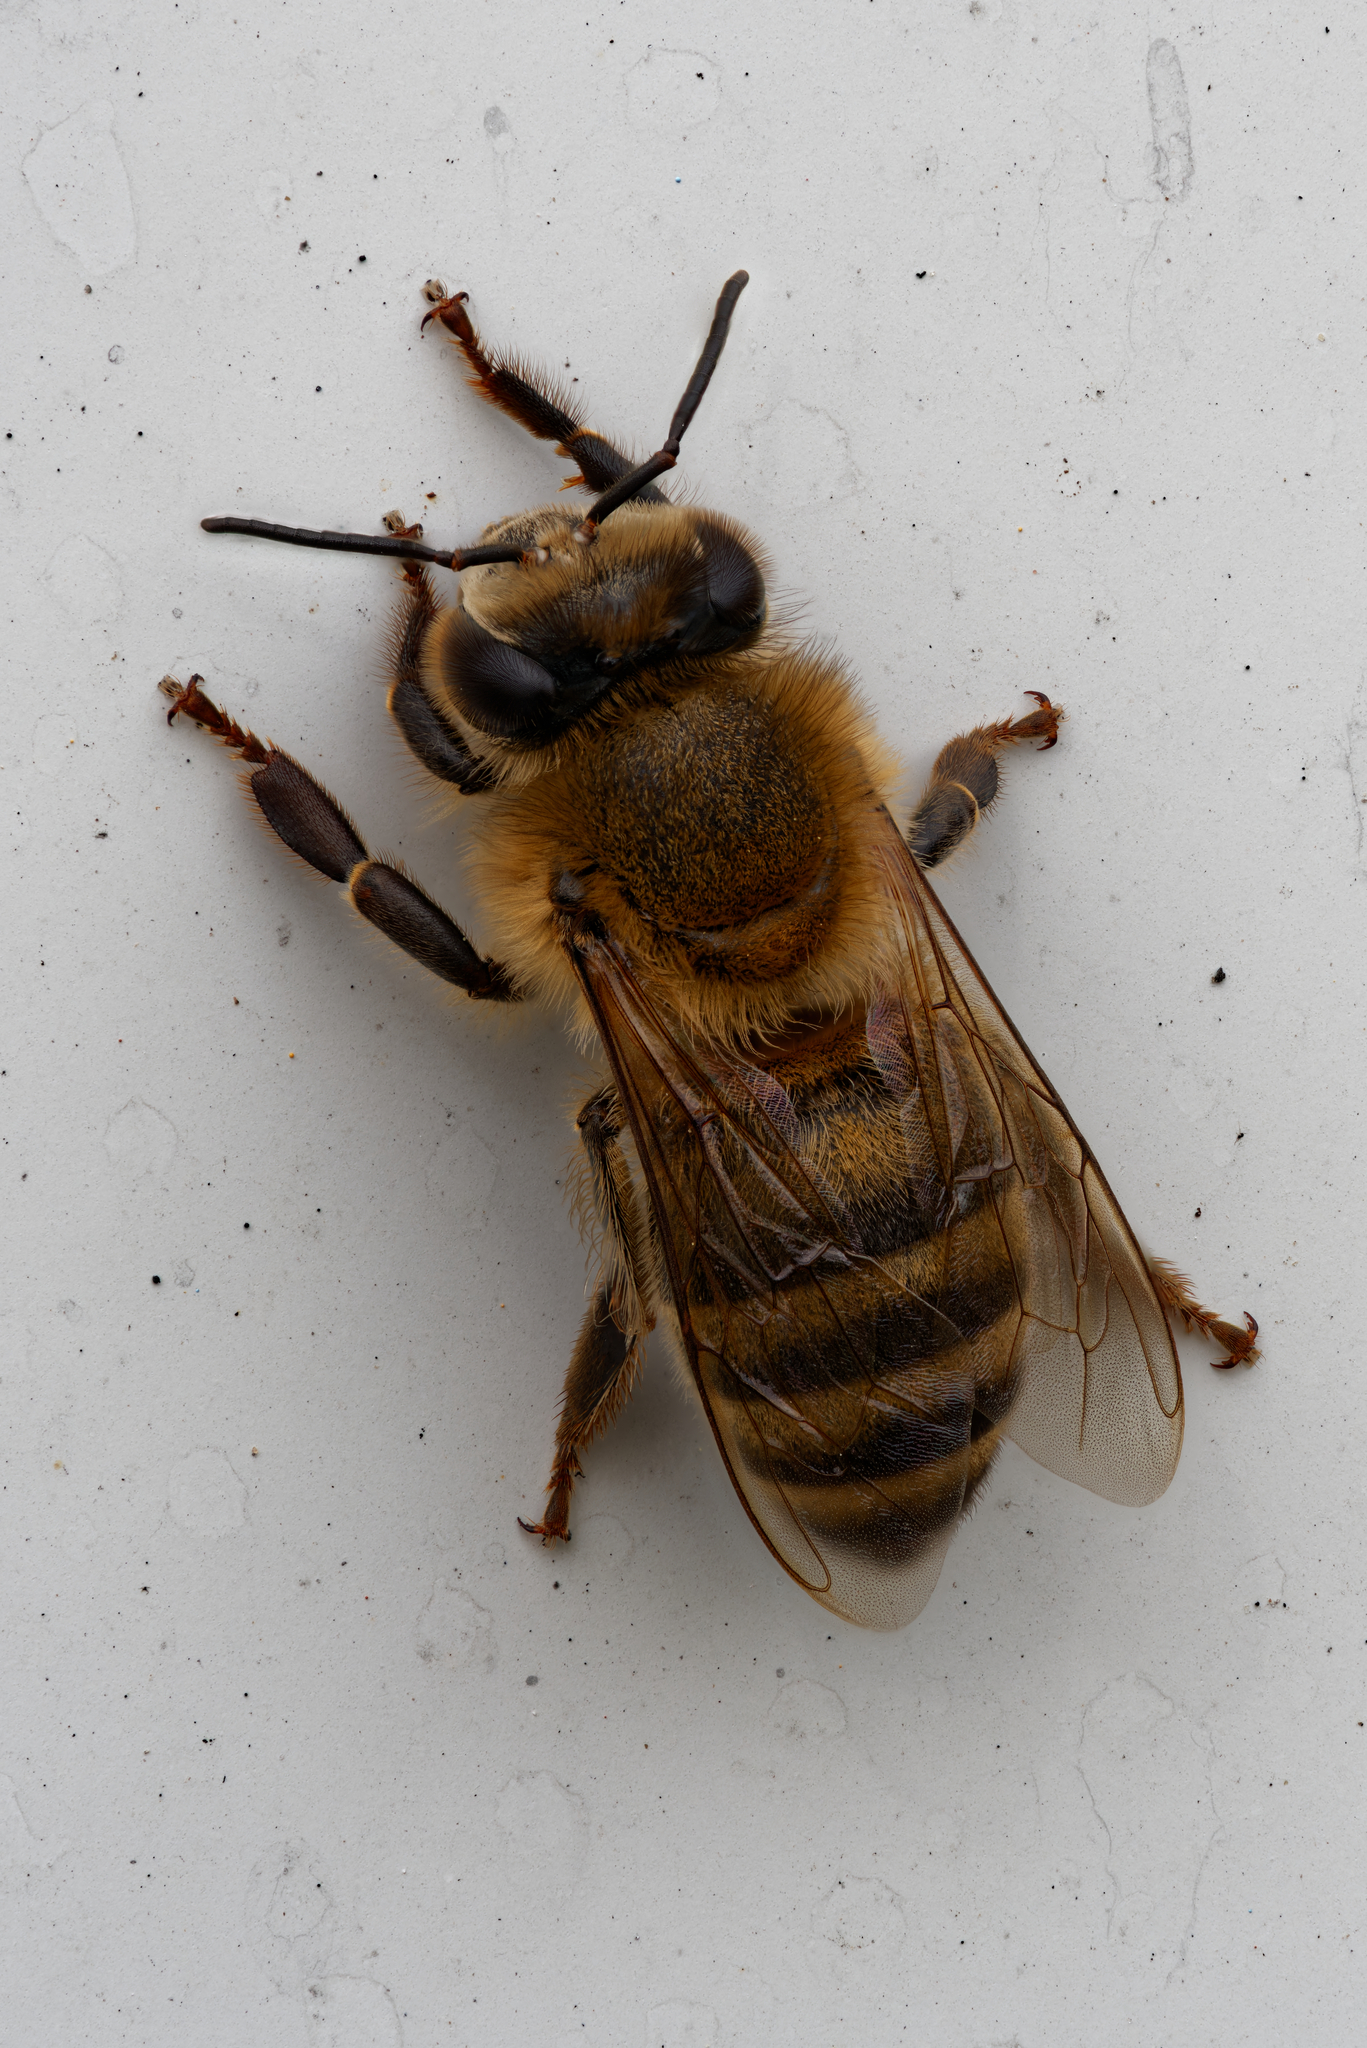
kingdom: Animalia
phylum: Arthropoda
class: Insecta
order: Hymenoptera
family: Apidae
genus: Apis
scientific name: Apis mellifera
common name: Honey bee
